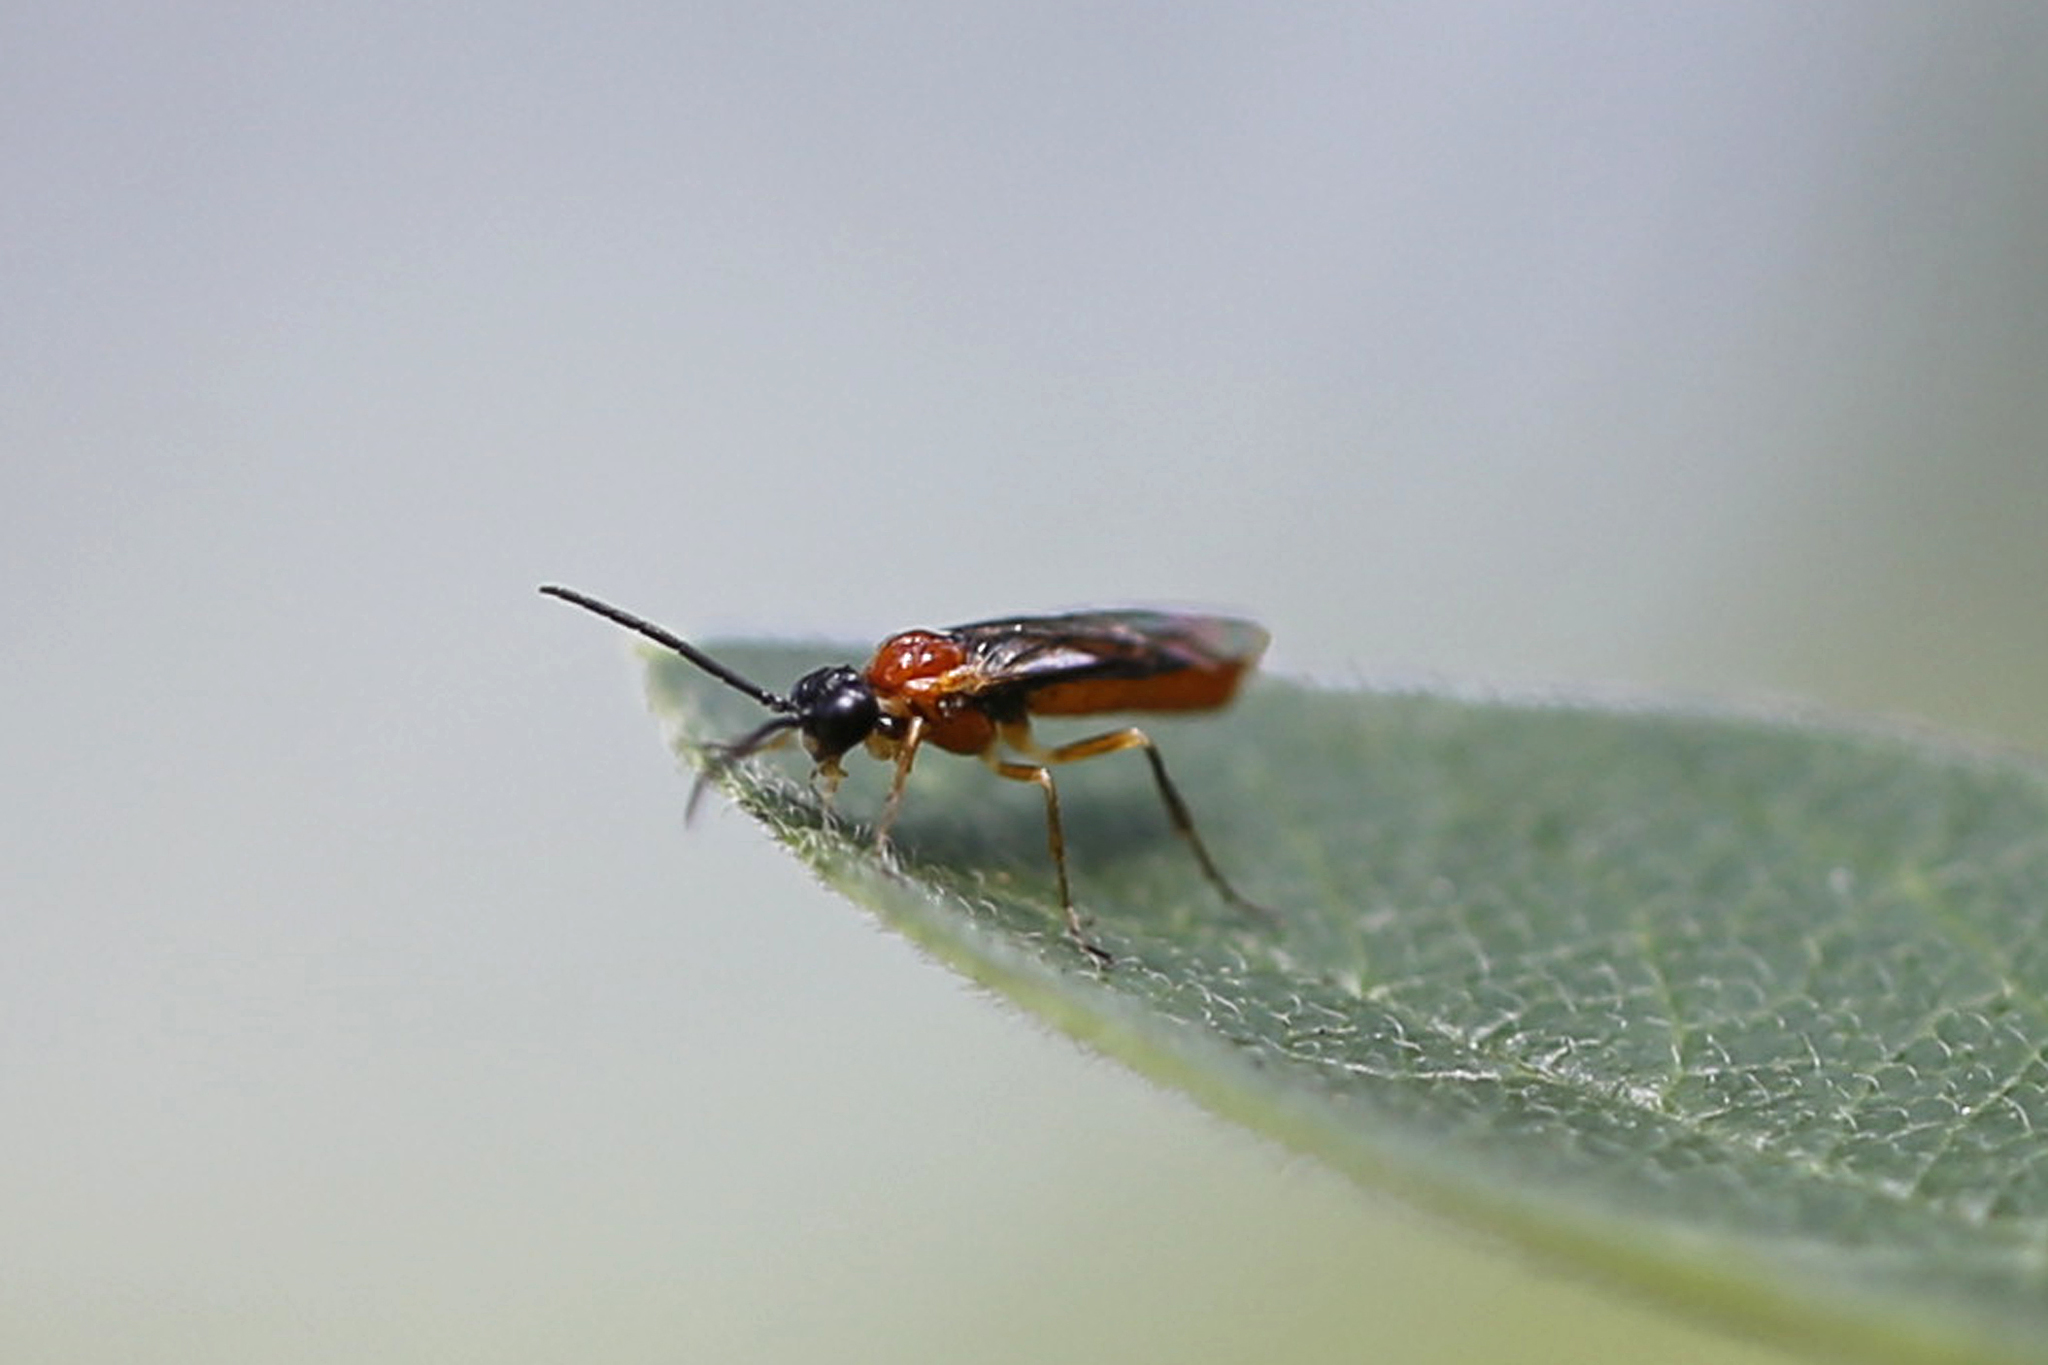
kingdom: Animalia
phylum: Arthropoda
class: Insecta
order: Hymenoptera
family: Tenthredinidae
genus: Thrinax
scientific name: Thrinax dubitata
